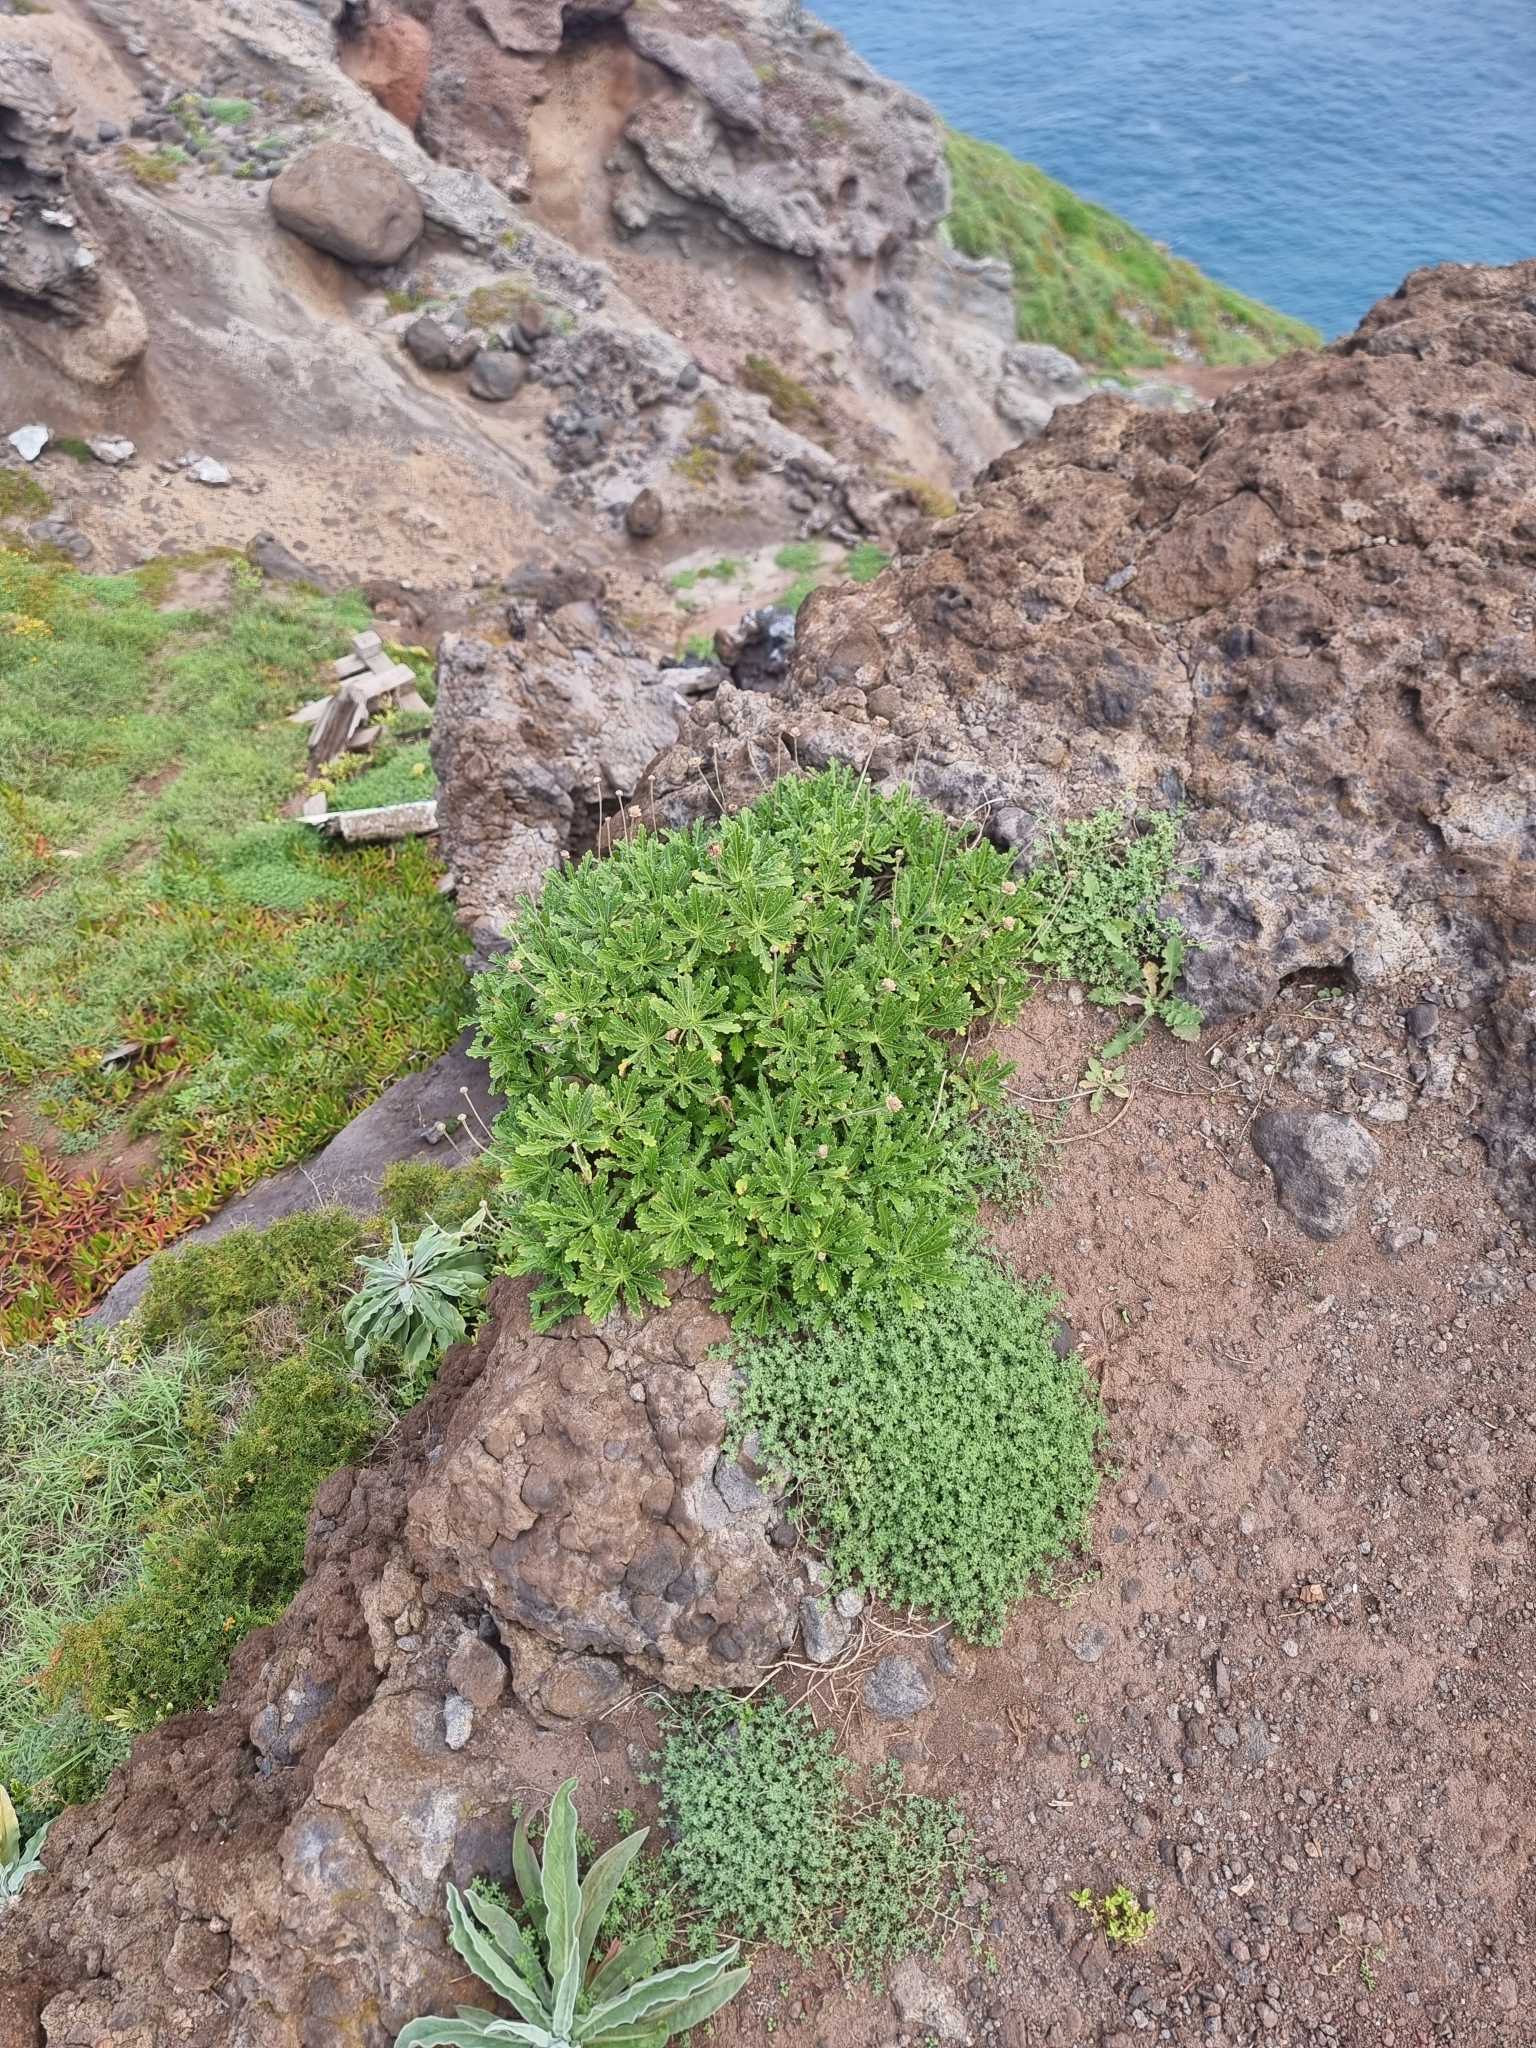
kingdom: Plantae
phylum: Tracheophyta
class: Magnoliopsida
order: Asterales
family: Asteraceae
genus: Argyranthemum
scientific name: Argyranthemum pinnatifidum
